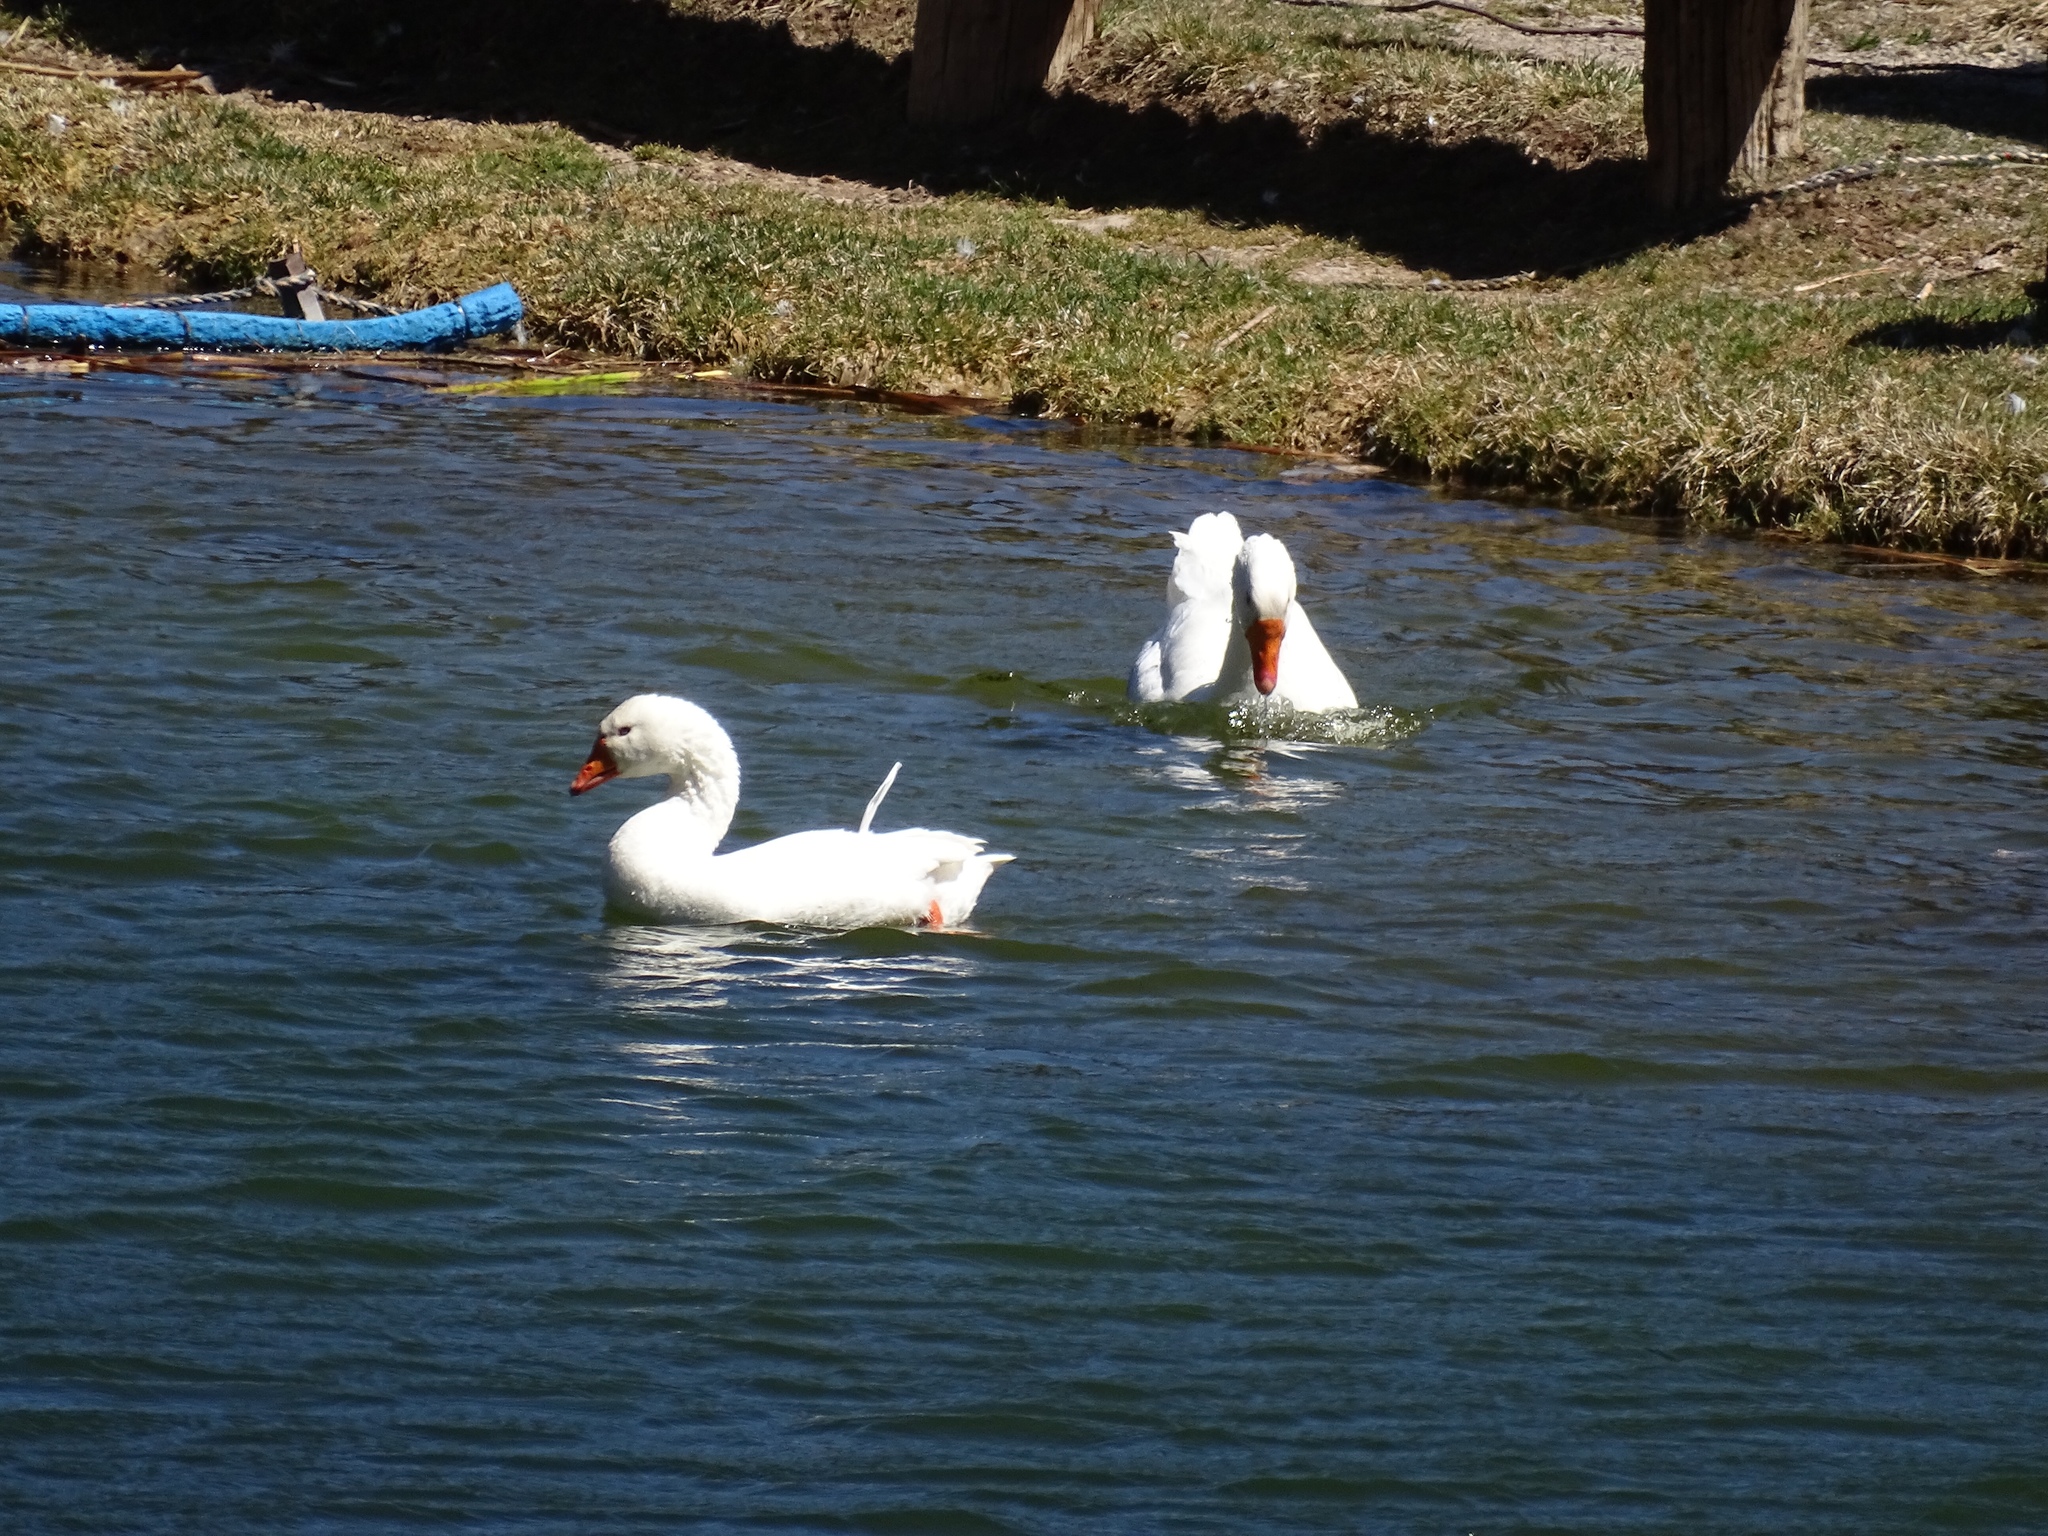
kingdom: Animalia
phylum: Chordata
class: Aves
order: Anseriformes
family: Anatidae
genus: Anser
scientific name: Anser
